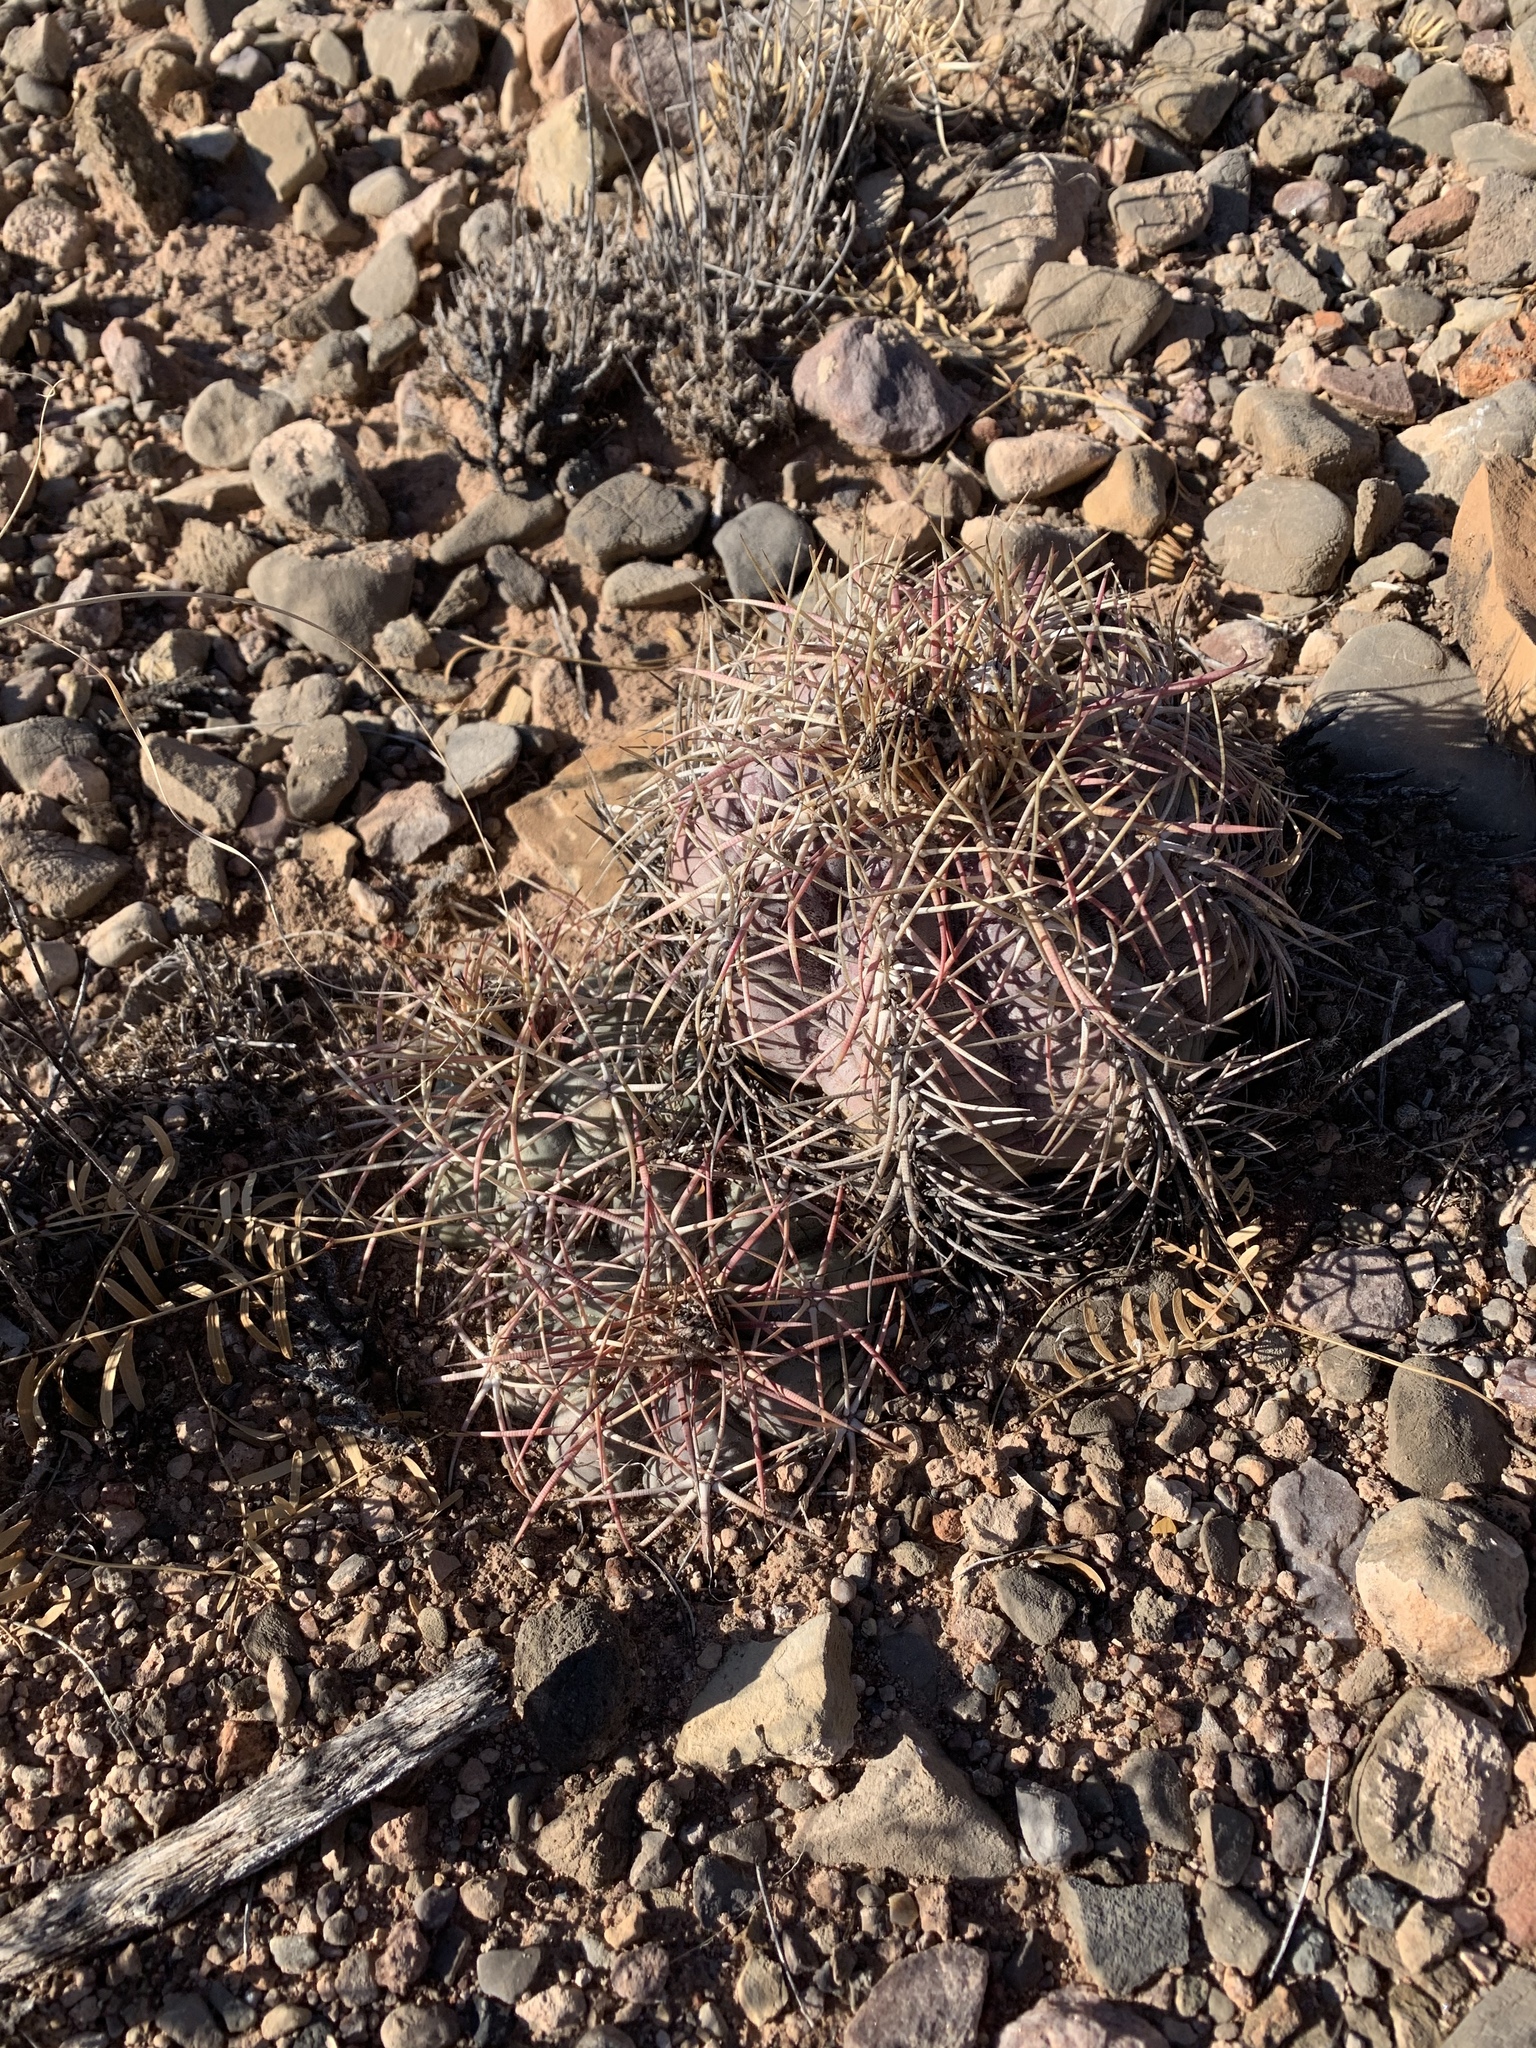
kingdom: Plantae
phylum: Tracheophyta
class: Magnoliopsida
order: Caryophyllales
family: Cactaceae
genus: Echinocactus
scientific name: Echinocactus horizonthalonius
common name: Devilshead
